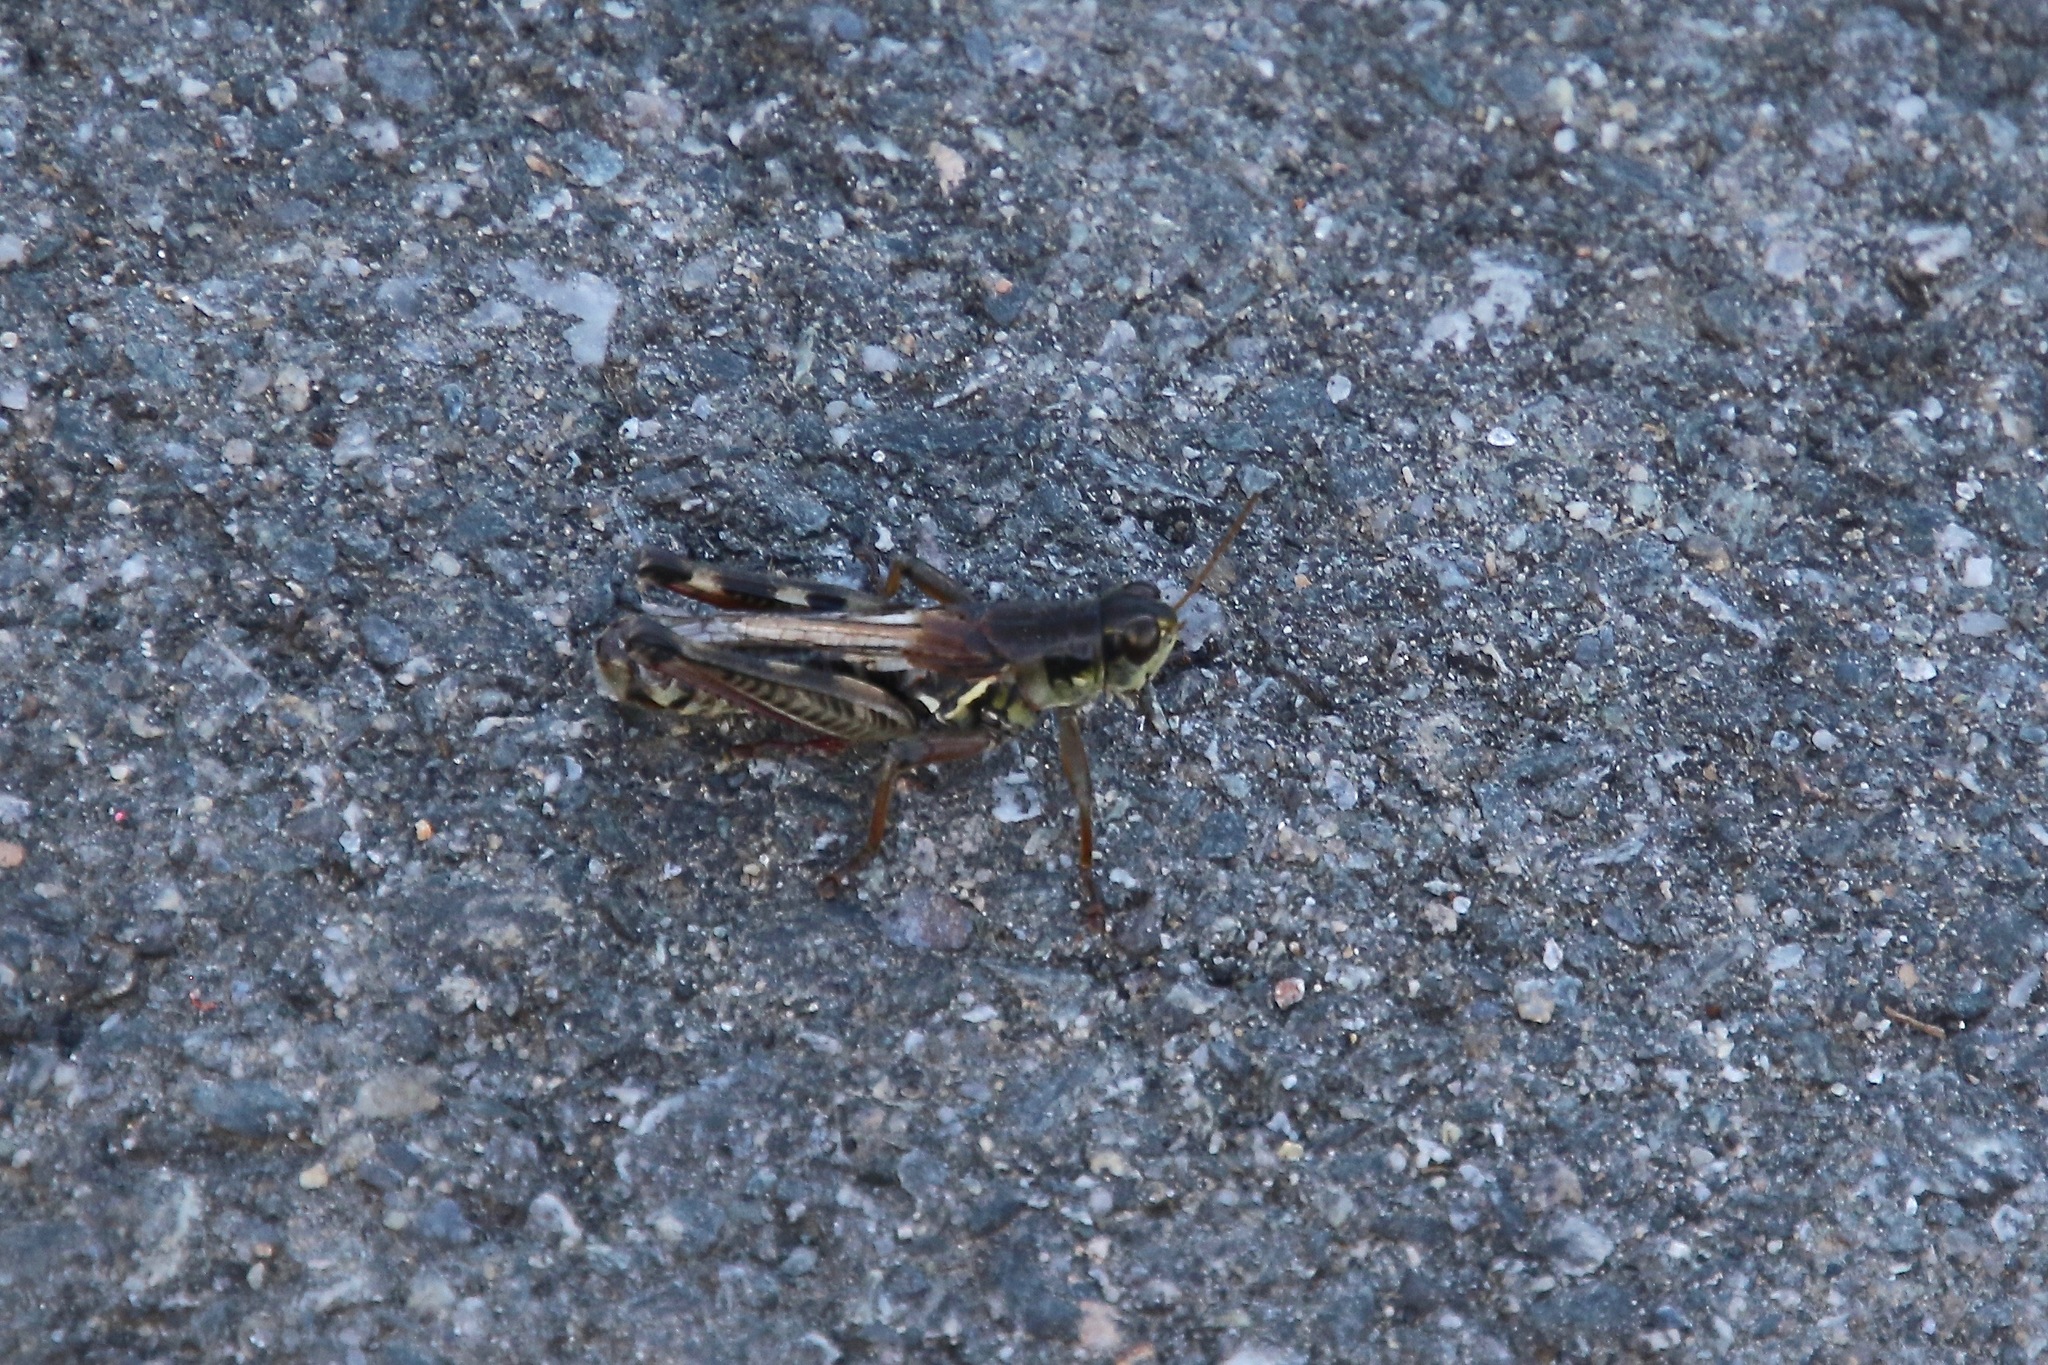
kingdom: Animalia
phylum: Arthropoda
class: Insecta
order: Orthoptera
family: Acrididae
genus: Melanoplus
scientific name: Melanoplus femurrubrum
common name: Red-legged grasshopper
